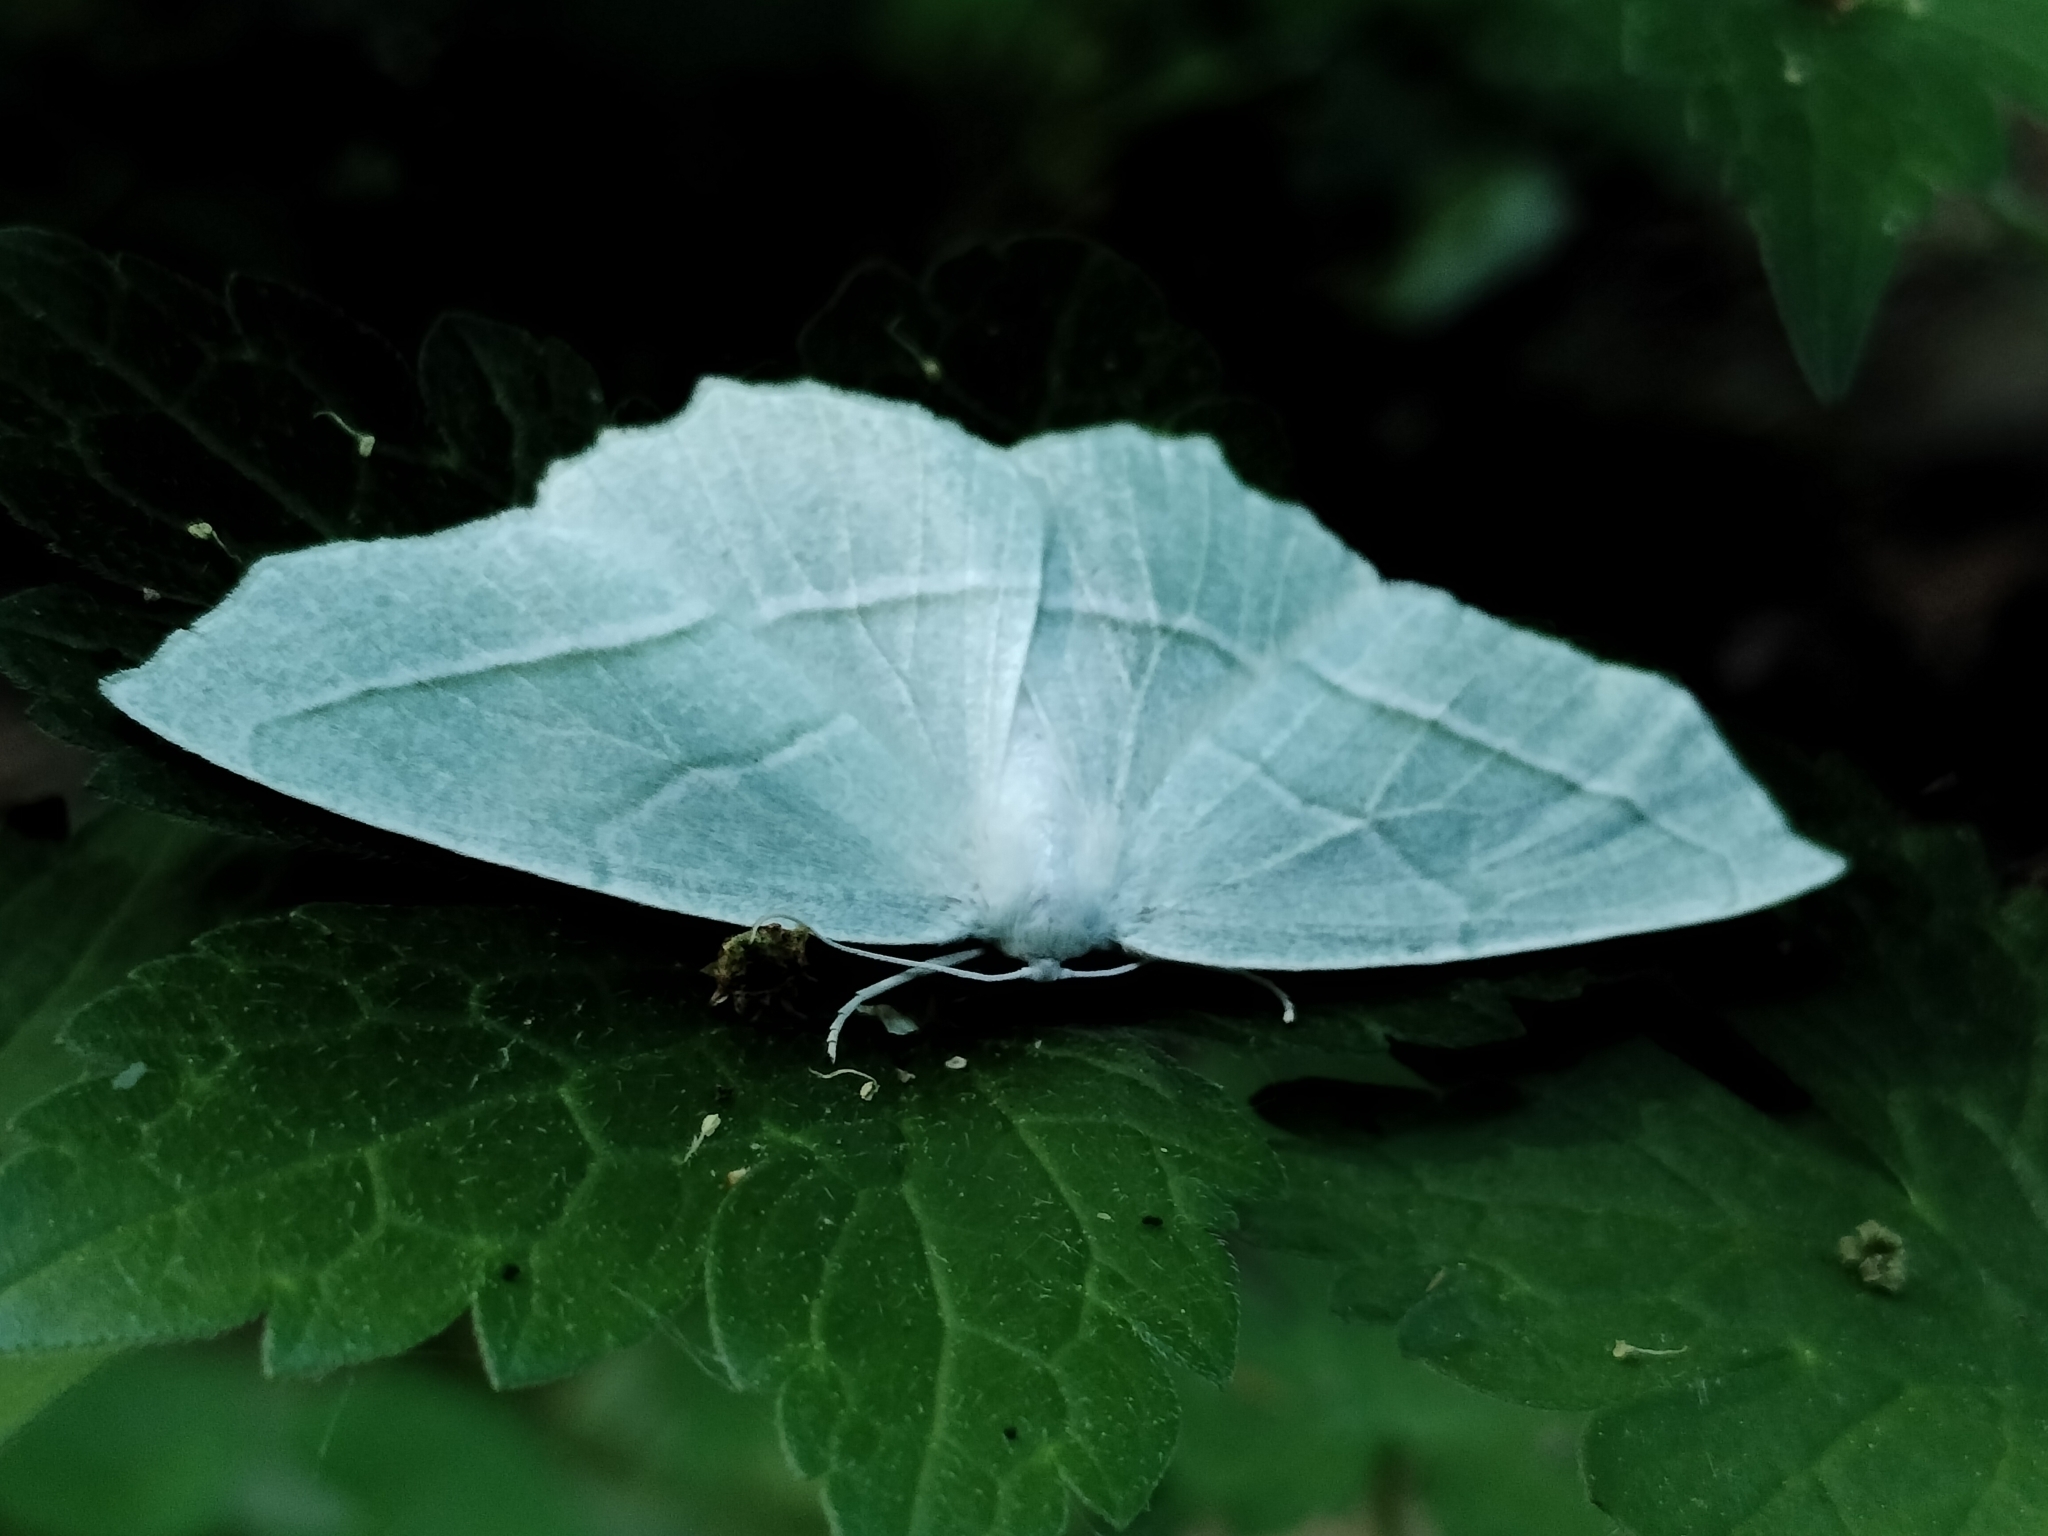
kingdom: Animalia
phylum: Arthropoda
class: Insecta
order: Lepidoptera
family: Geometridae
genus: Campaea
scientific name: Campaea perlata
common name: Fringed looper
